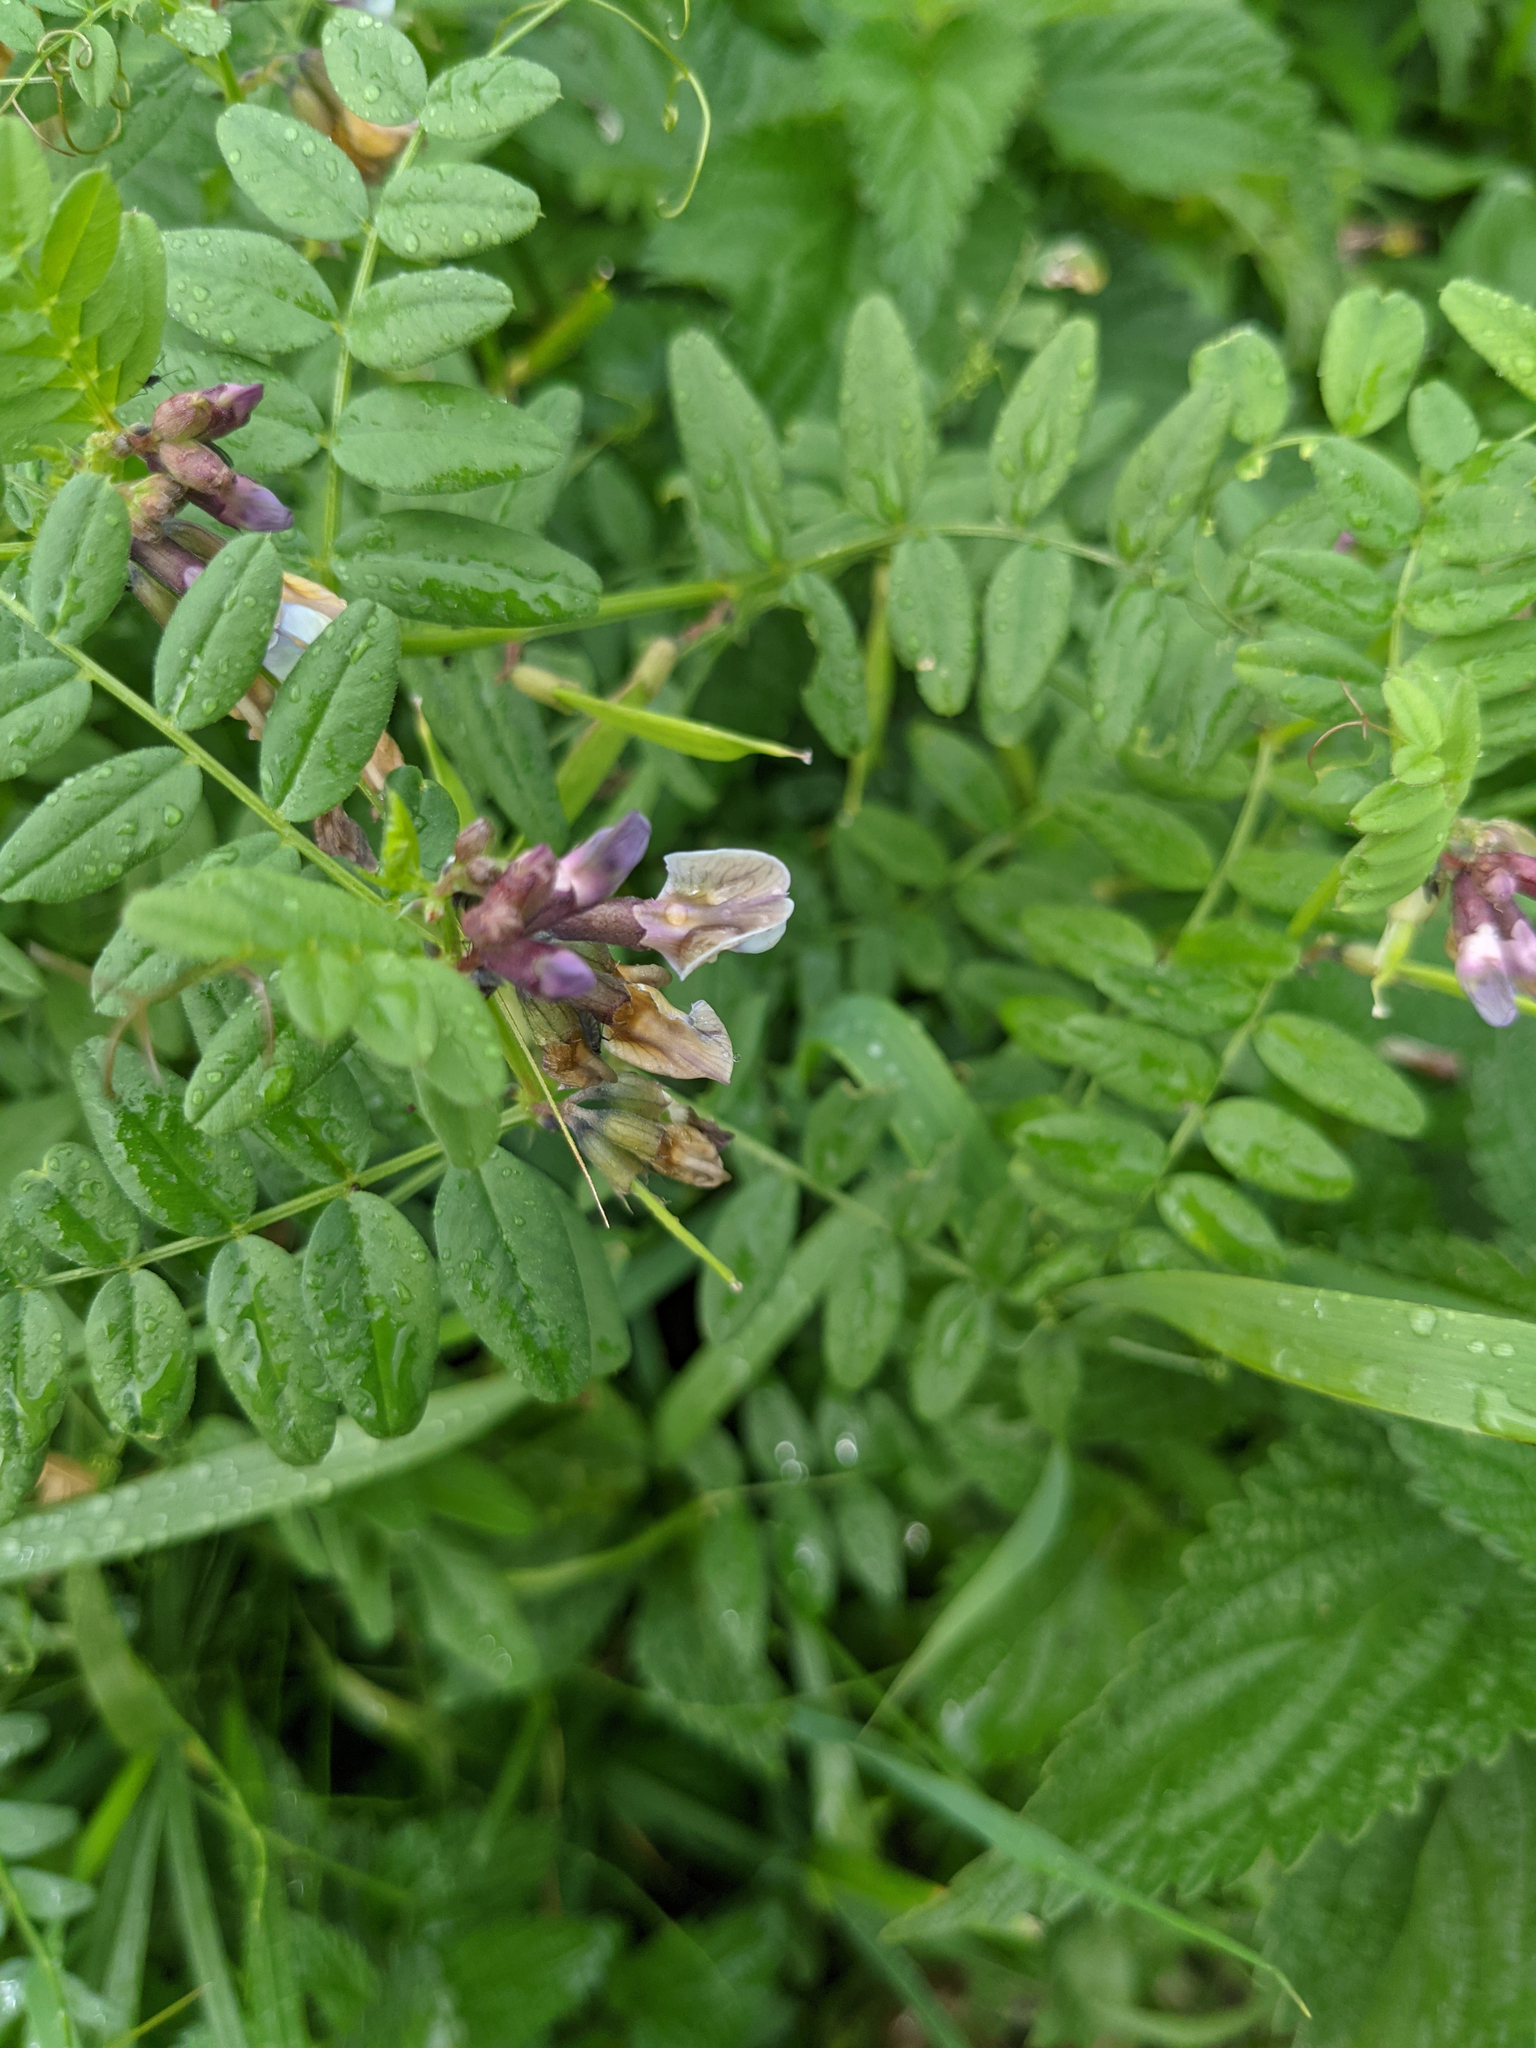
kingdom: Plantae
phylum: Tracheophyta
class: Magnoliopsida
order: Fabales
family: Fabaceae
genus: Vicia
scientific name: Vicia sepium
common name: Bush vetch
